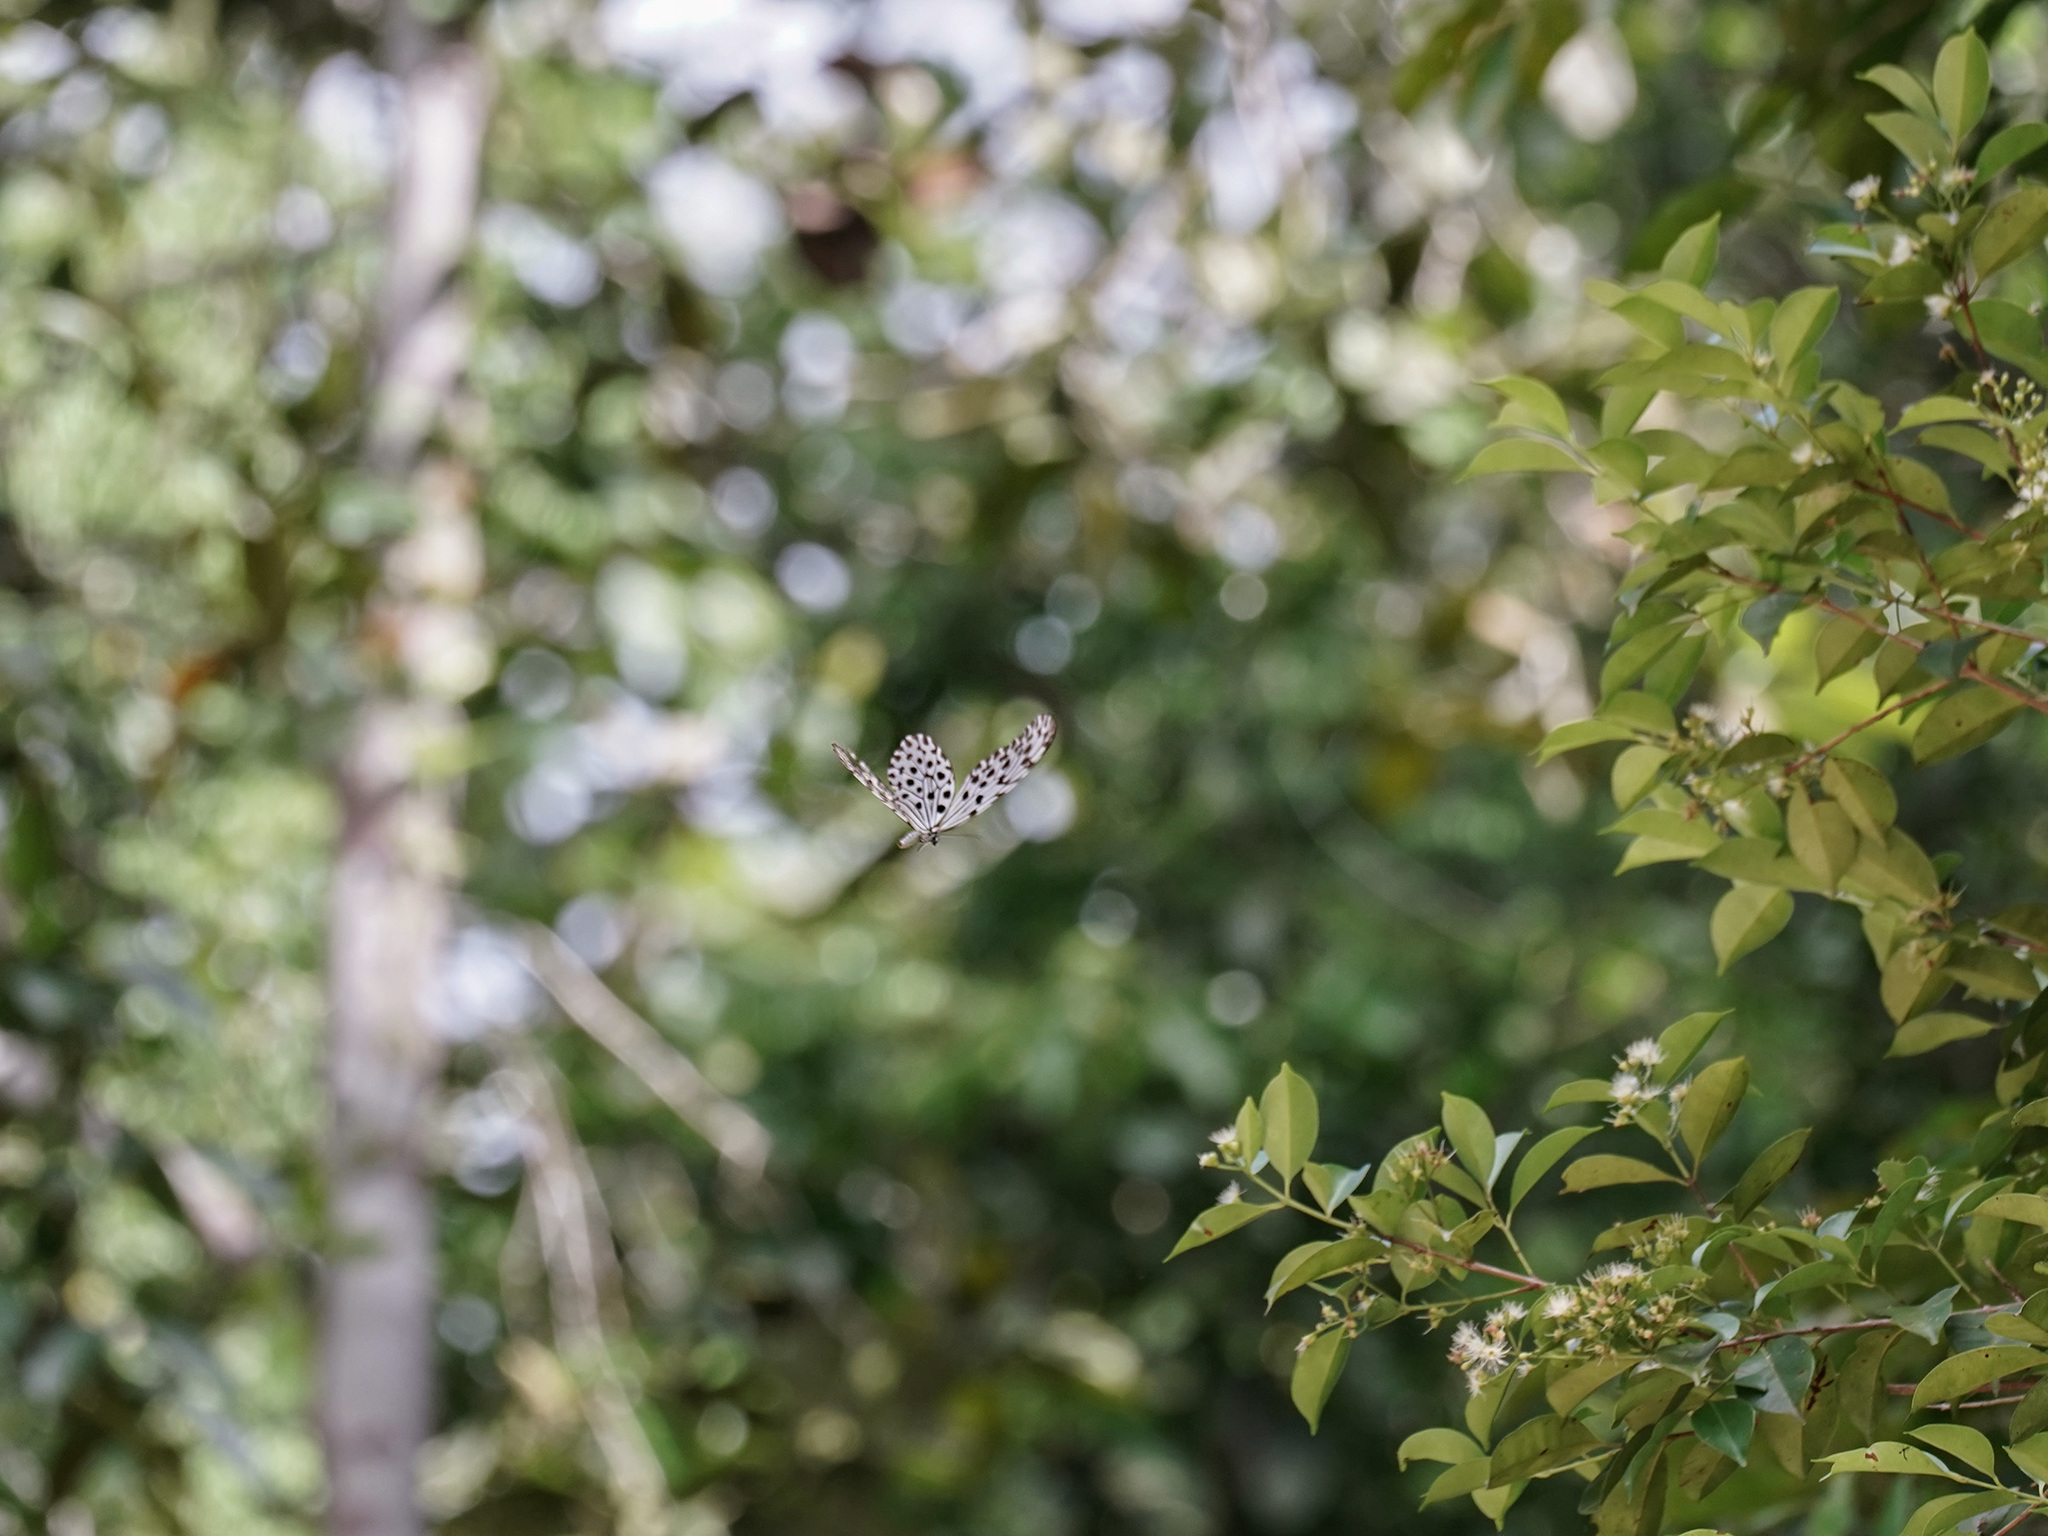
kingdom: Animalia
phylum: Arthropoda
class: Insecta
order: Lepidoptera
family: Nymphalidae
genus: Idea
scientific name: Idea stolli
